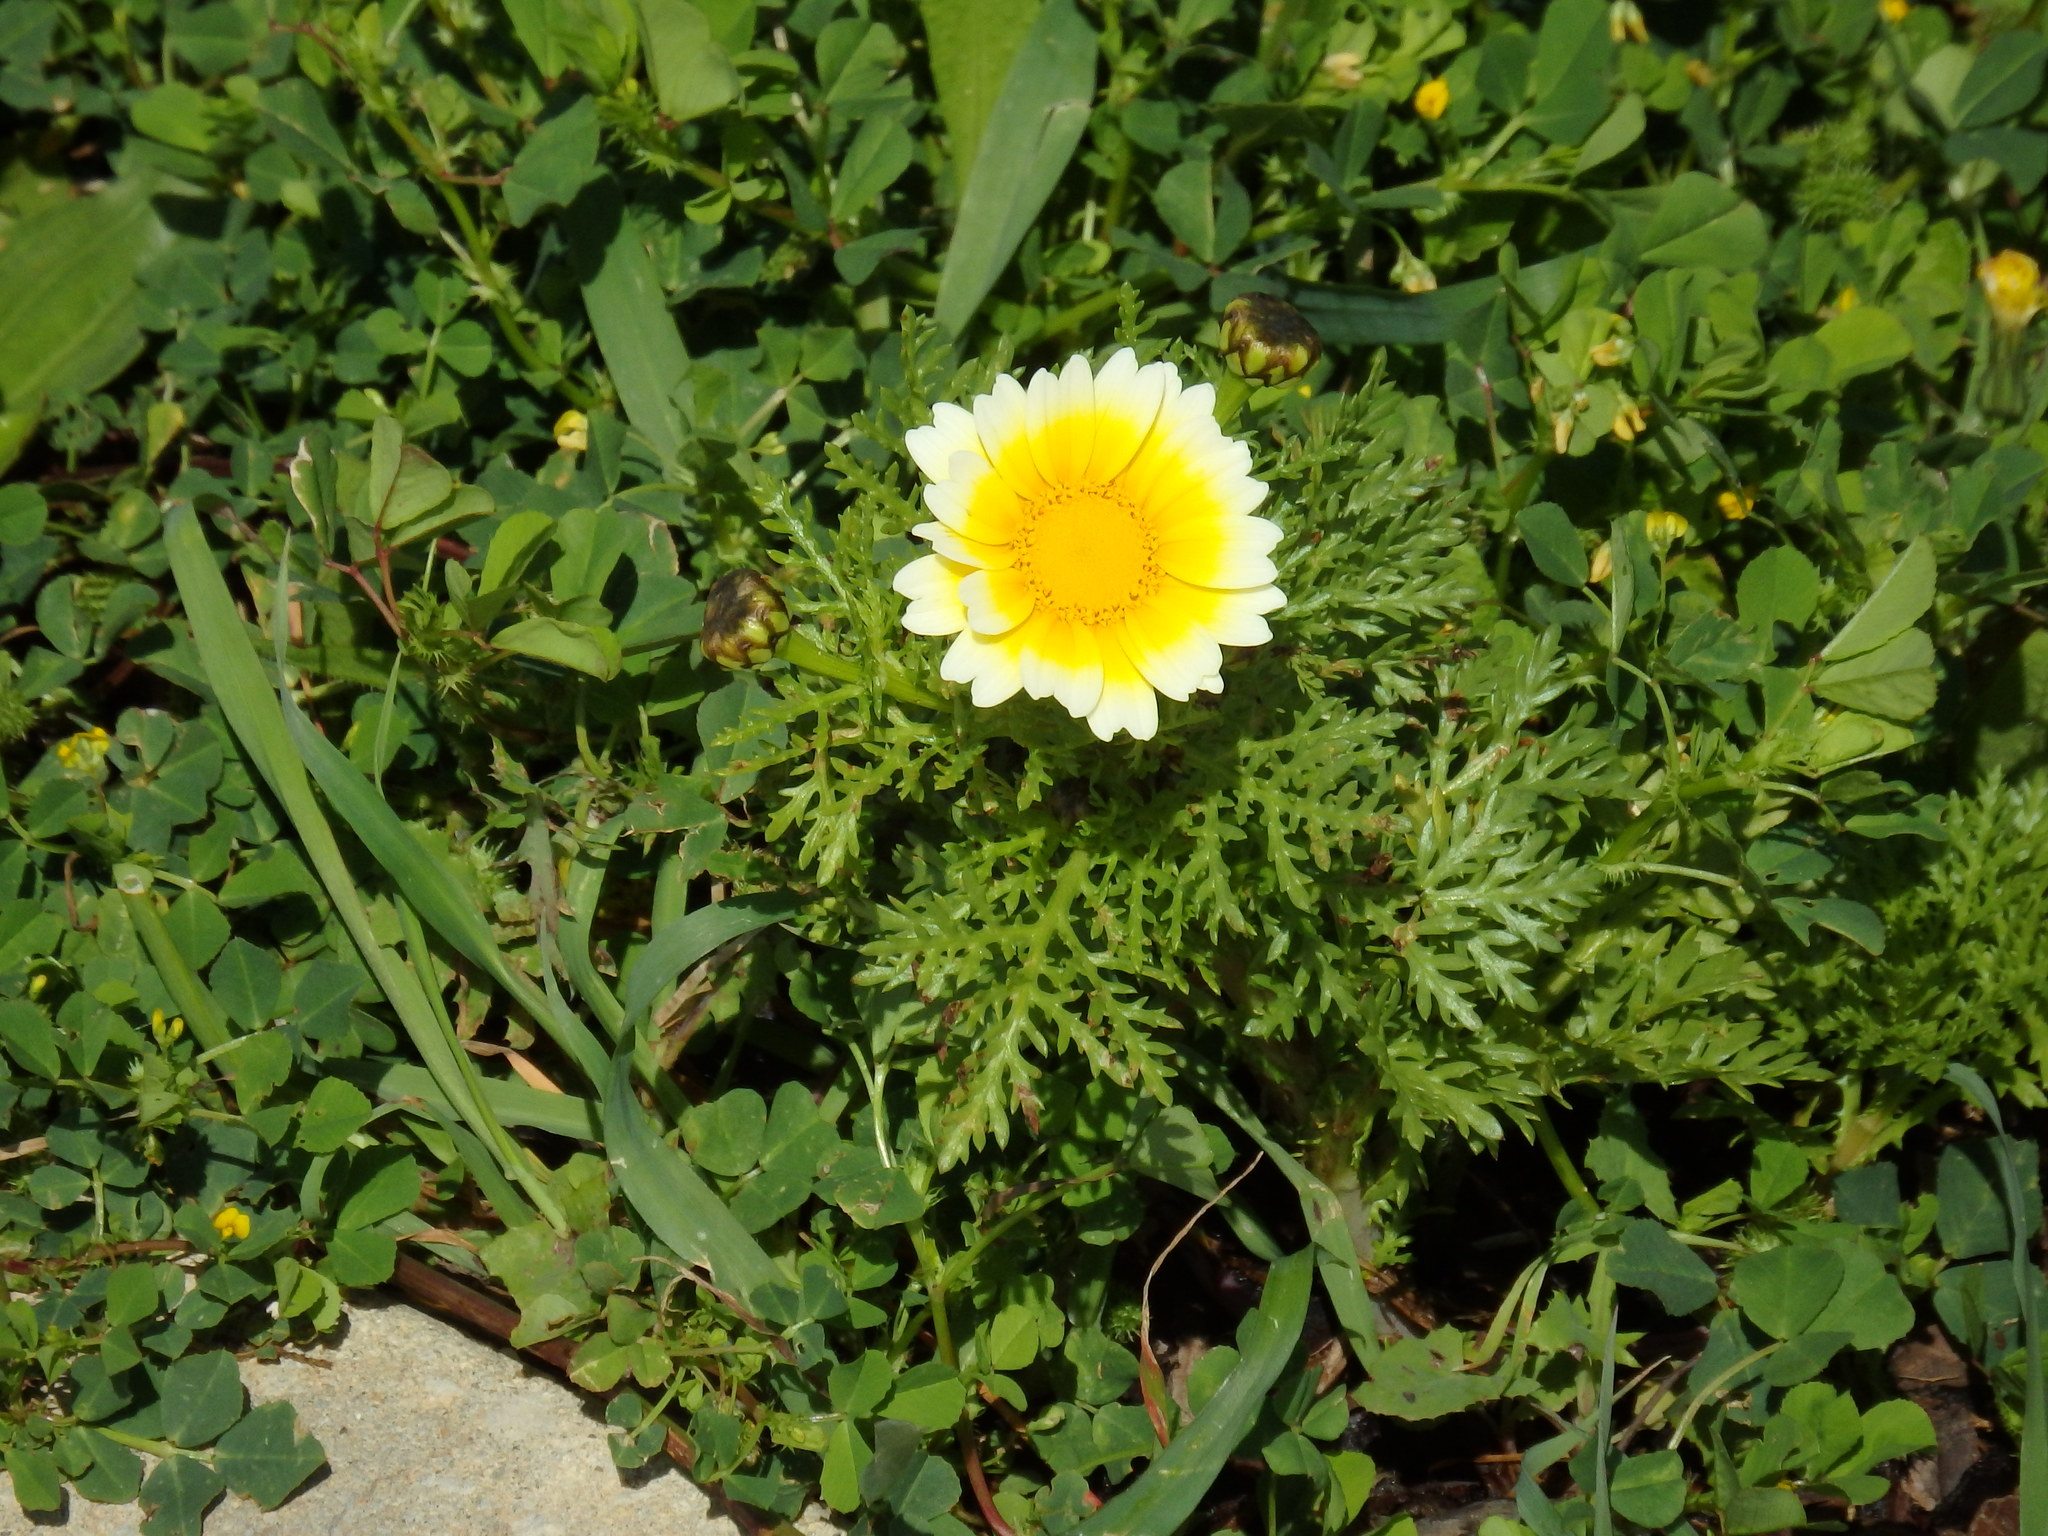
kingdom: Plantae
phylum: Tracheophyta
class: Magnoliopsida
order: Asterales
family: Asteraceae
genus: Glebionis
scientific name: Glebionis coronaria
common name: Crowndaisy
